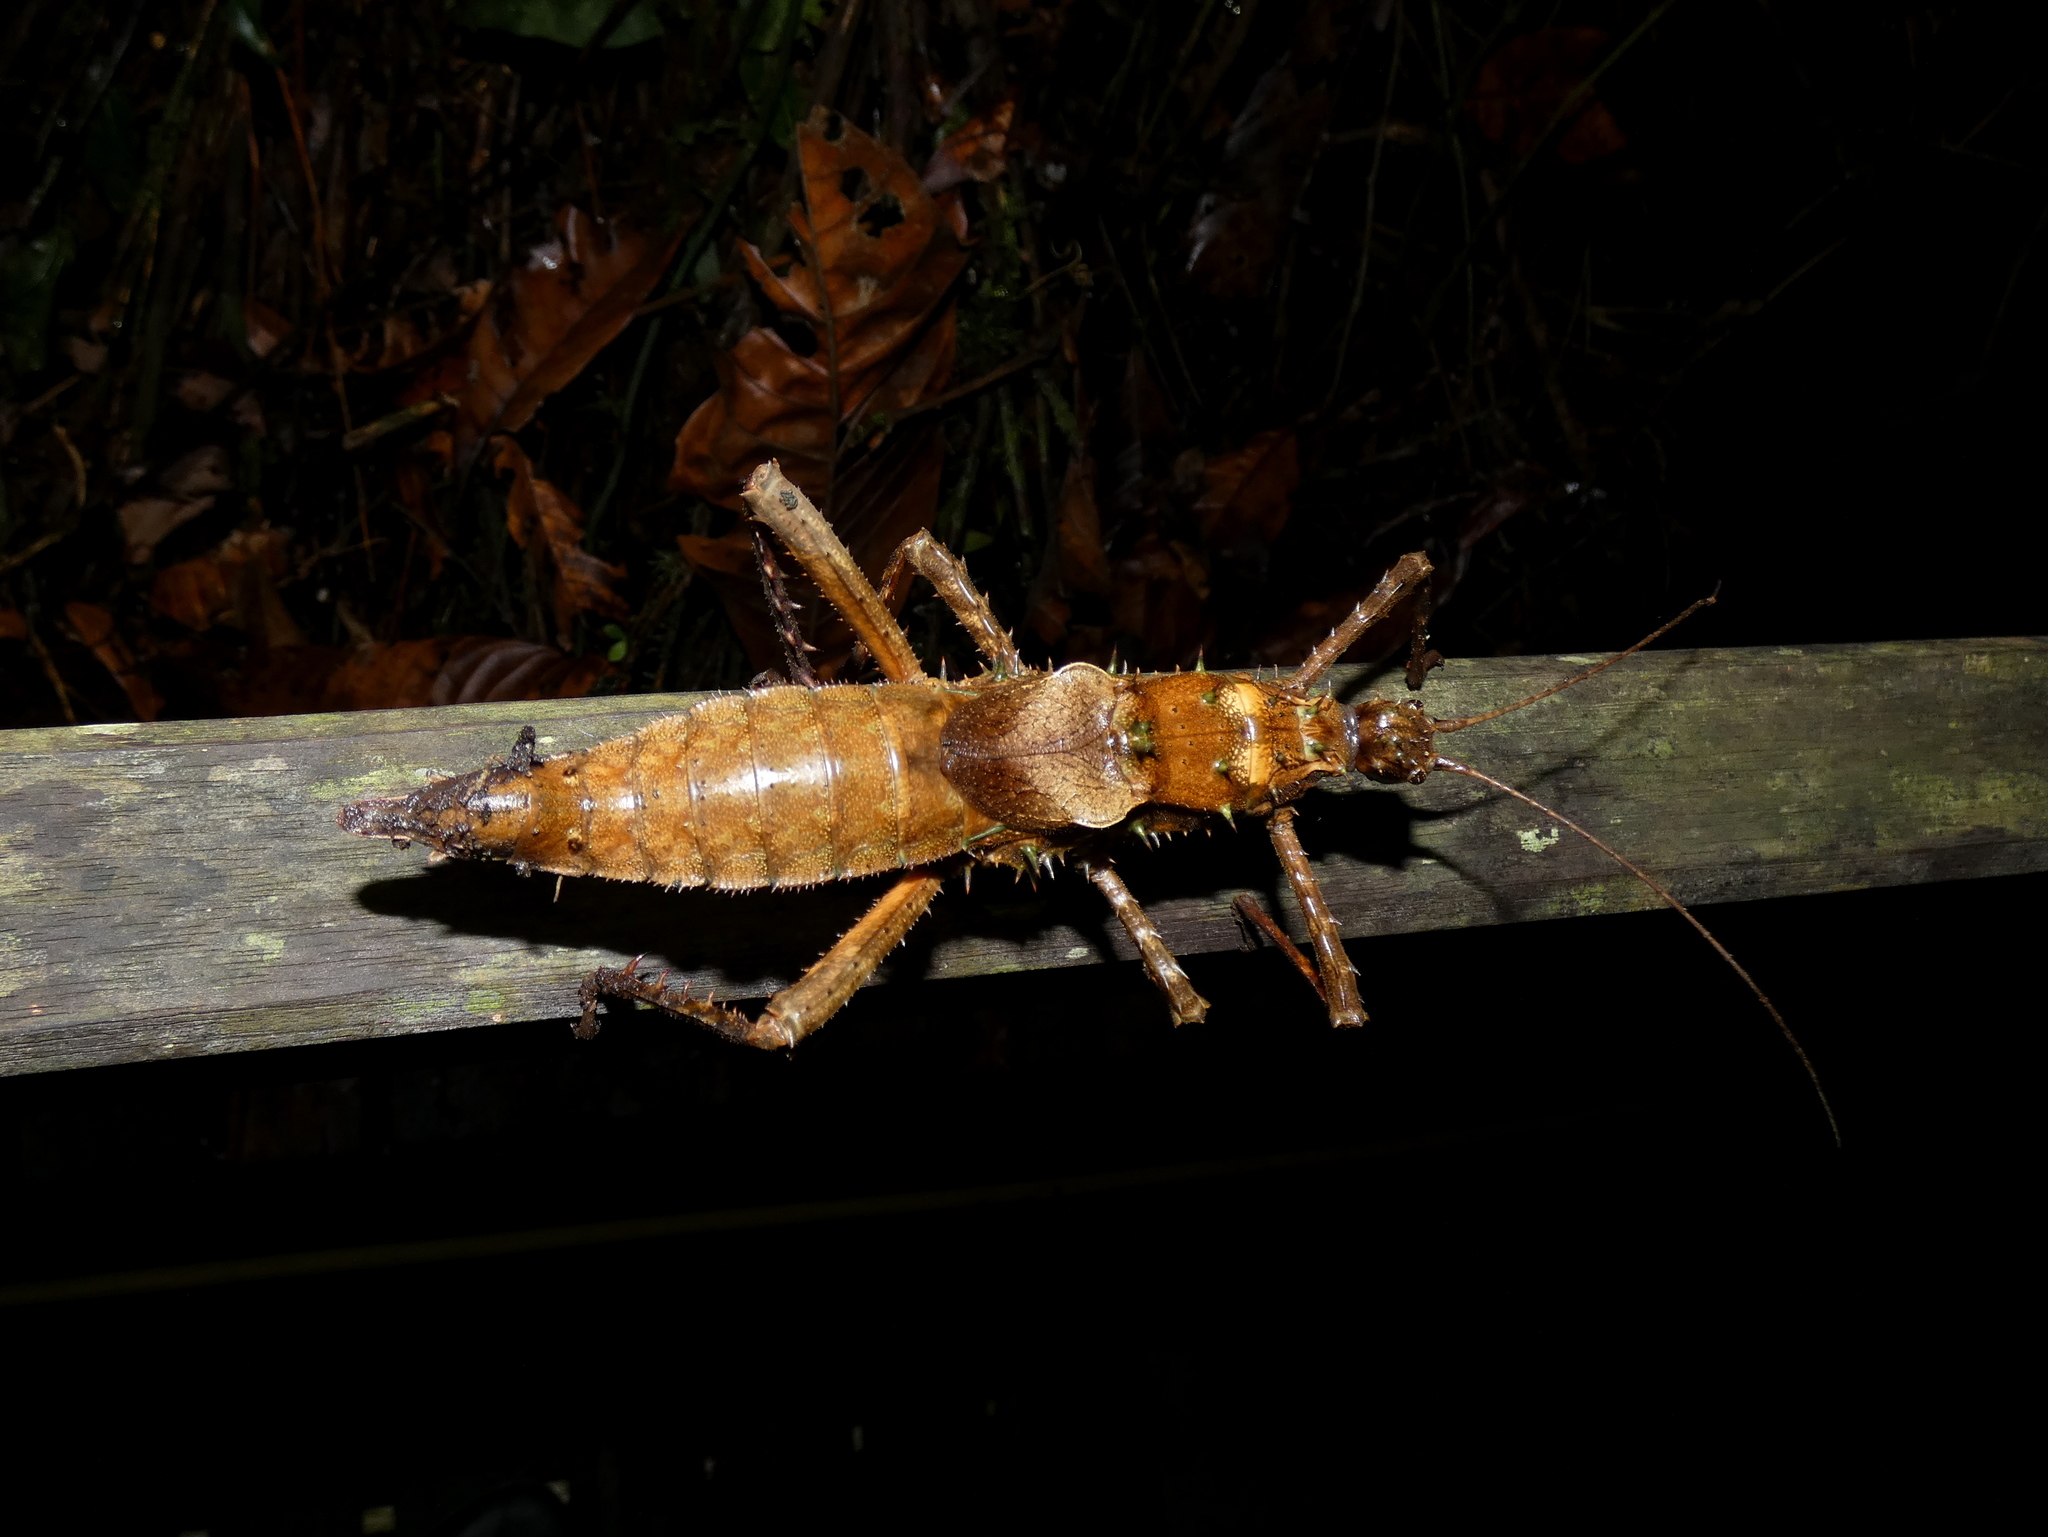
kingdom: Animalia
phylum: Arthropoda
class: Insecta
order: Phasmida
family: Heteropterygidae
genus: Haaniella
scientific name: Haaniella echinata
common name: Prickly haaniella
